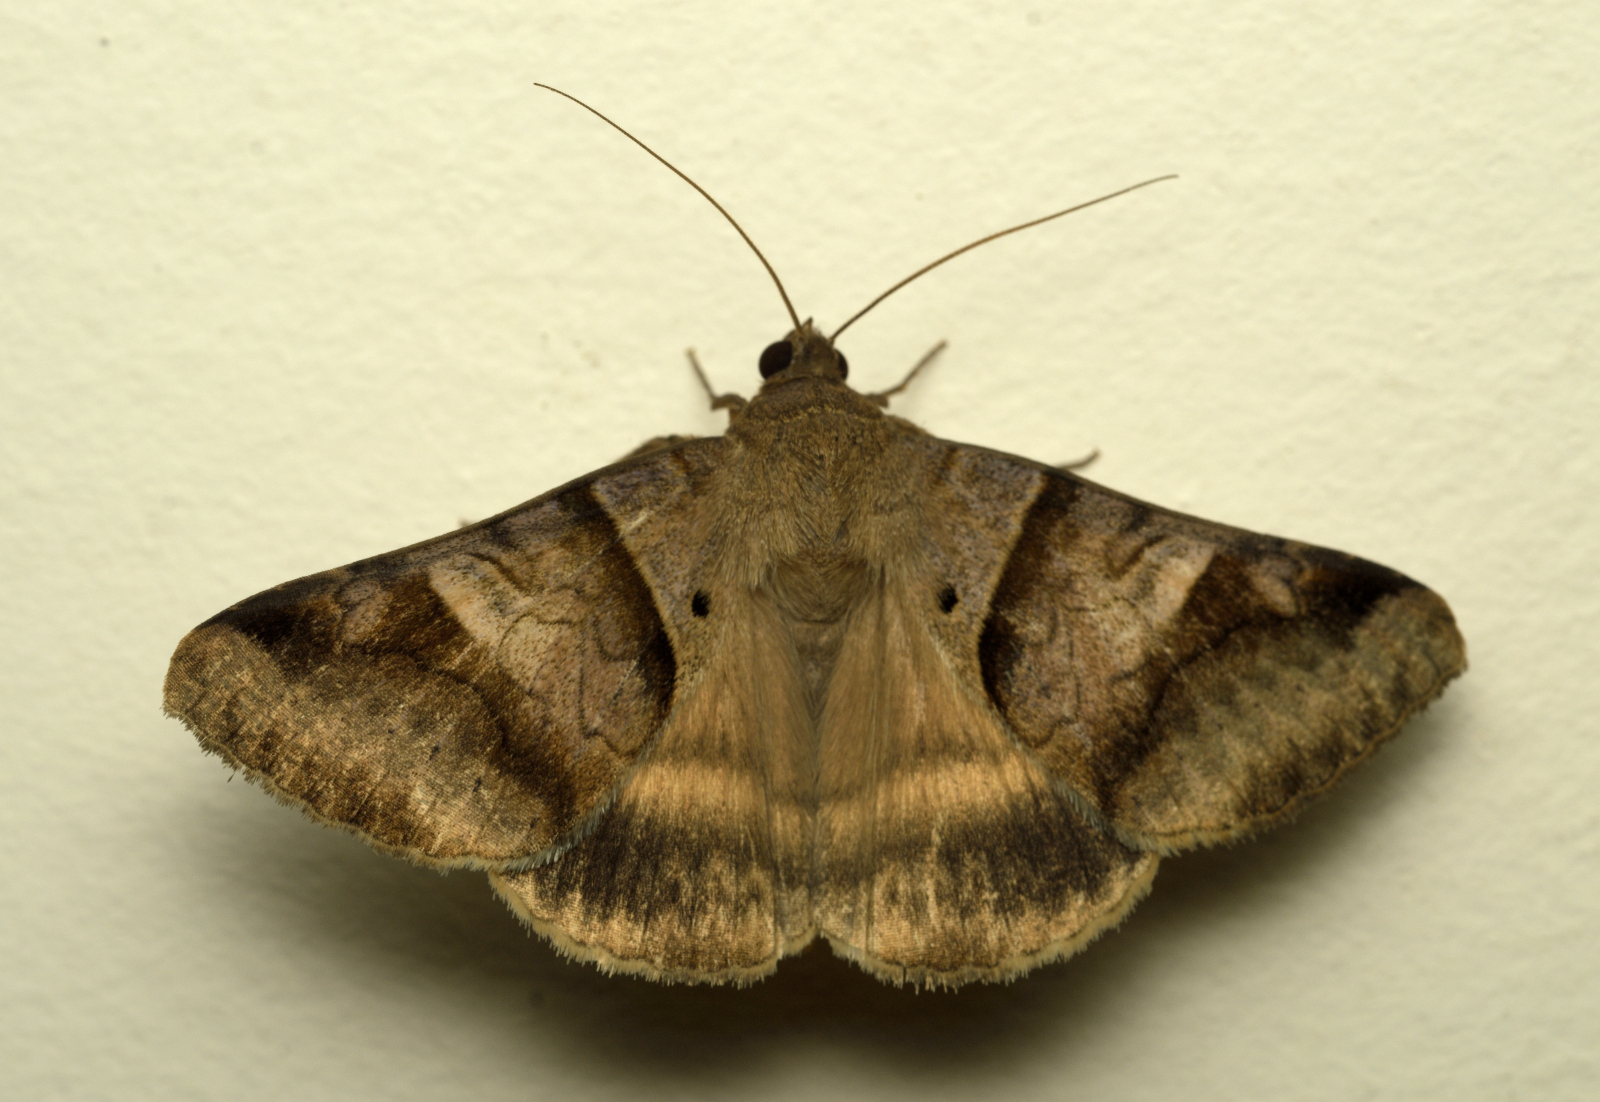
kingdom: Animalia
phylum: Arthropoda
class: Insecta
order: Lepidoptera
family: Erebidae
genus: Mocis
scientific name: Mocis undata
